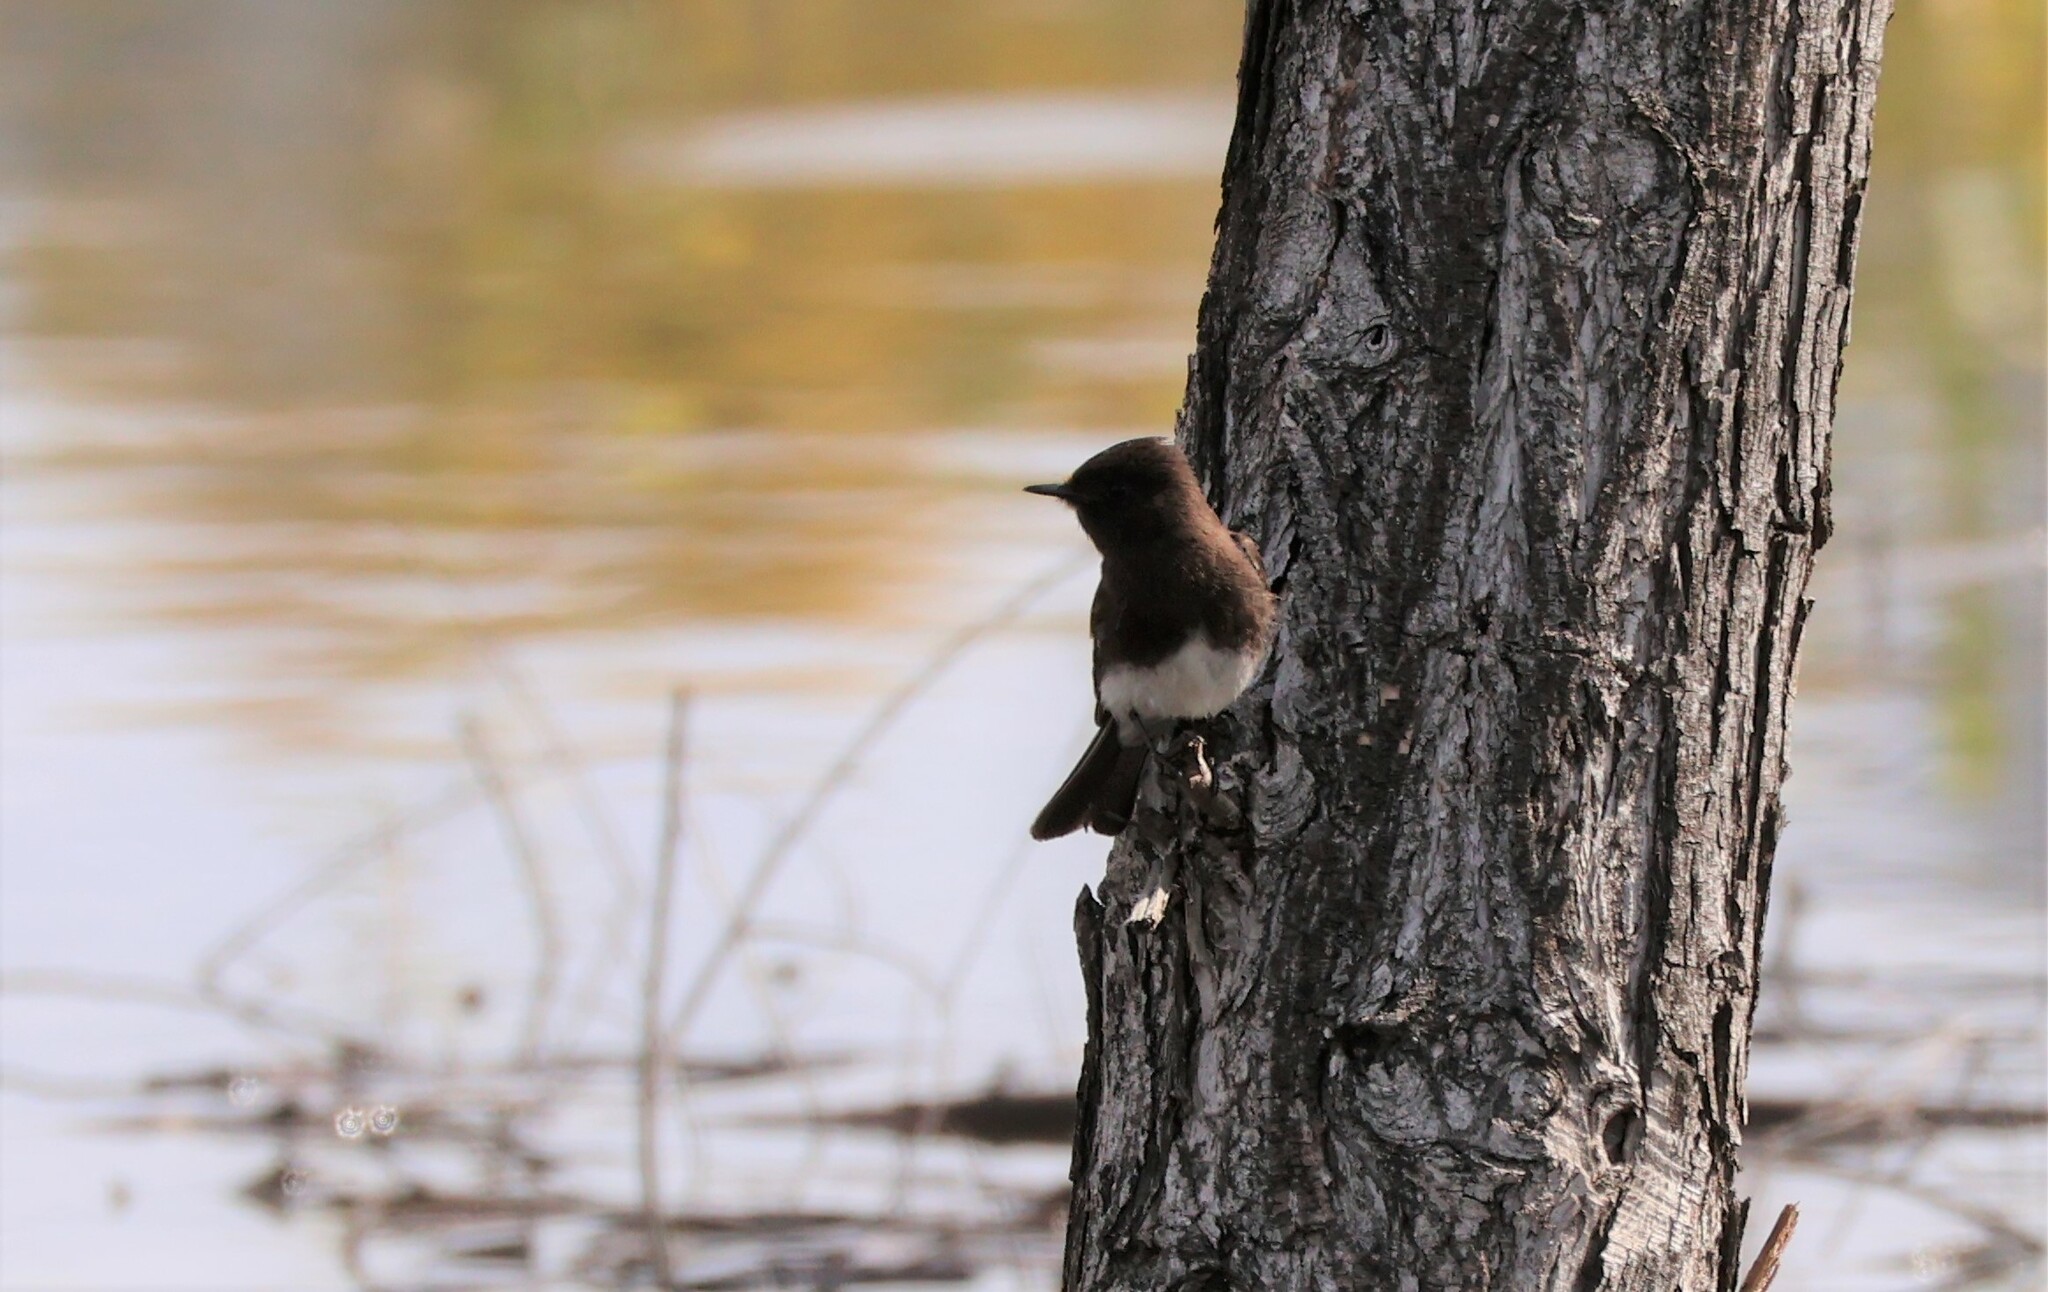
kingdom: Animalia
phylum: Chordata
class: Aves
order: Passeriformes
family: Tyrannidae
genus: Sayornis
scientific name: Sayornis nigricans
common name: Black phoebe
